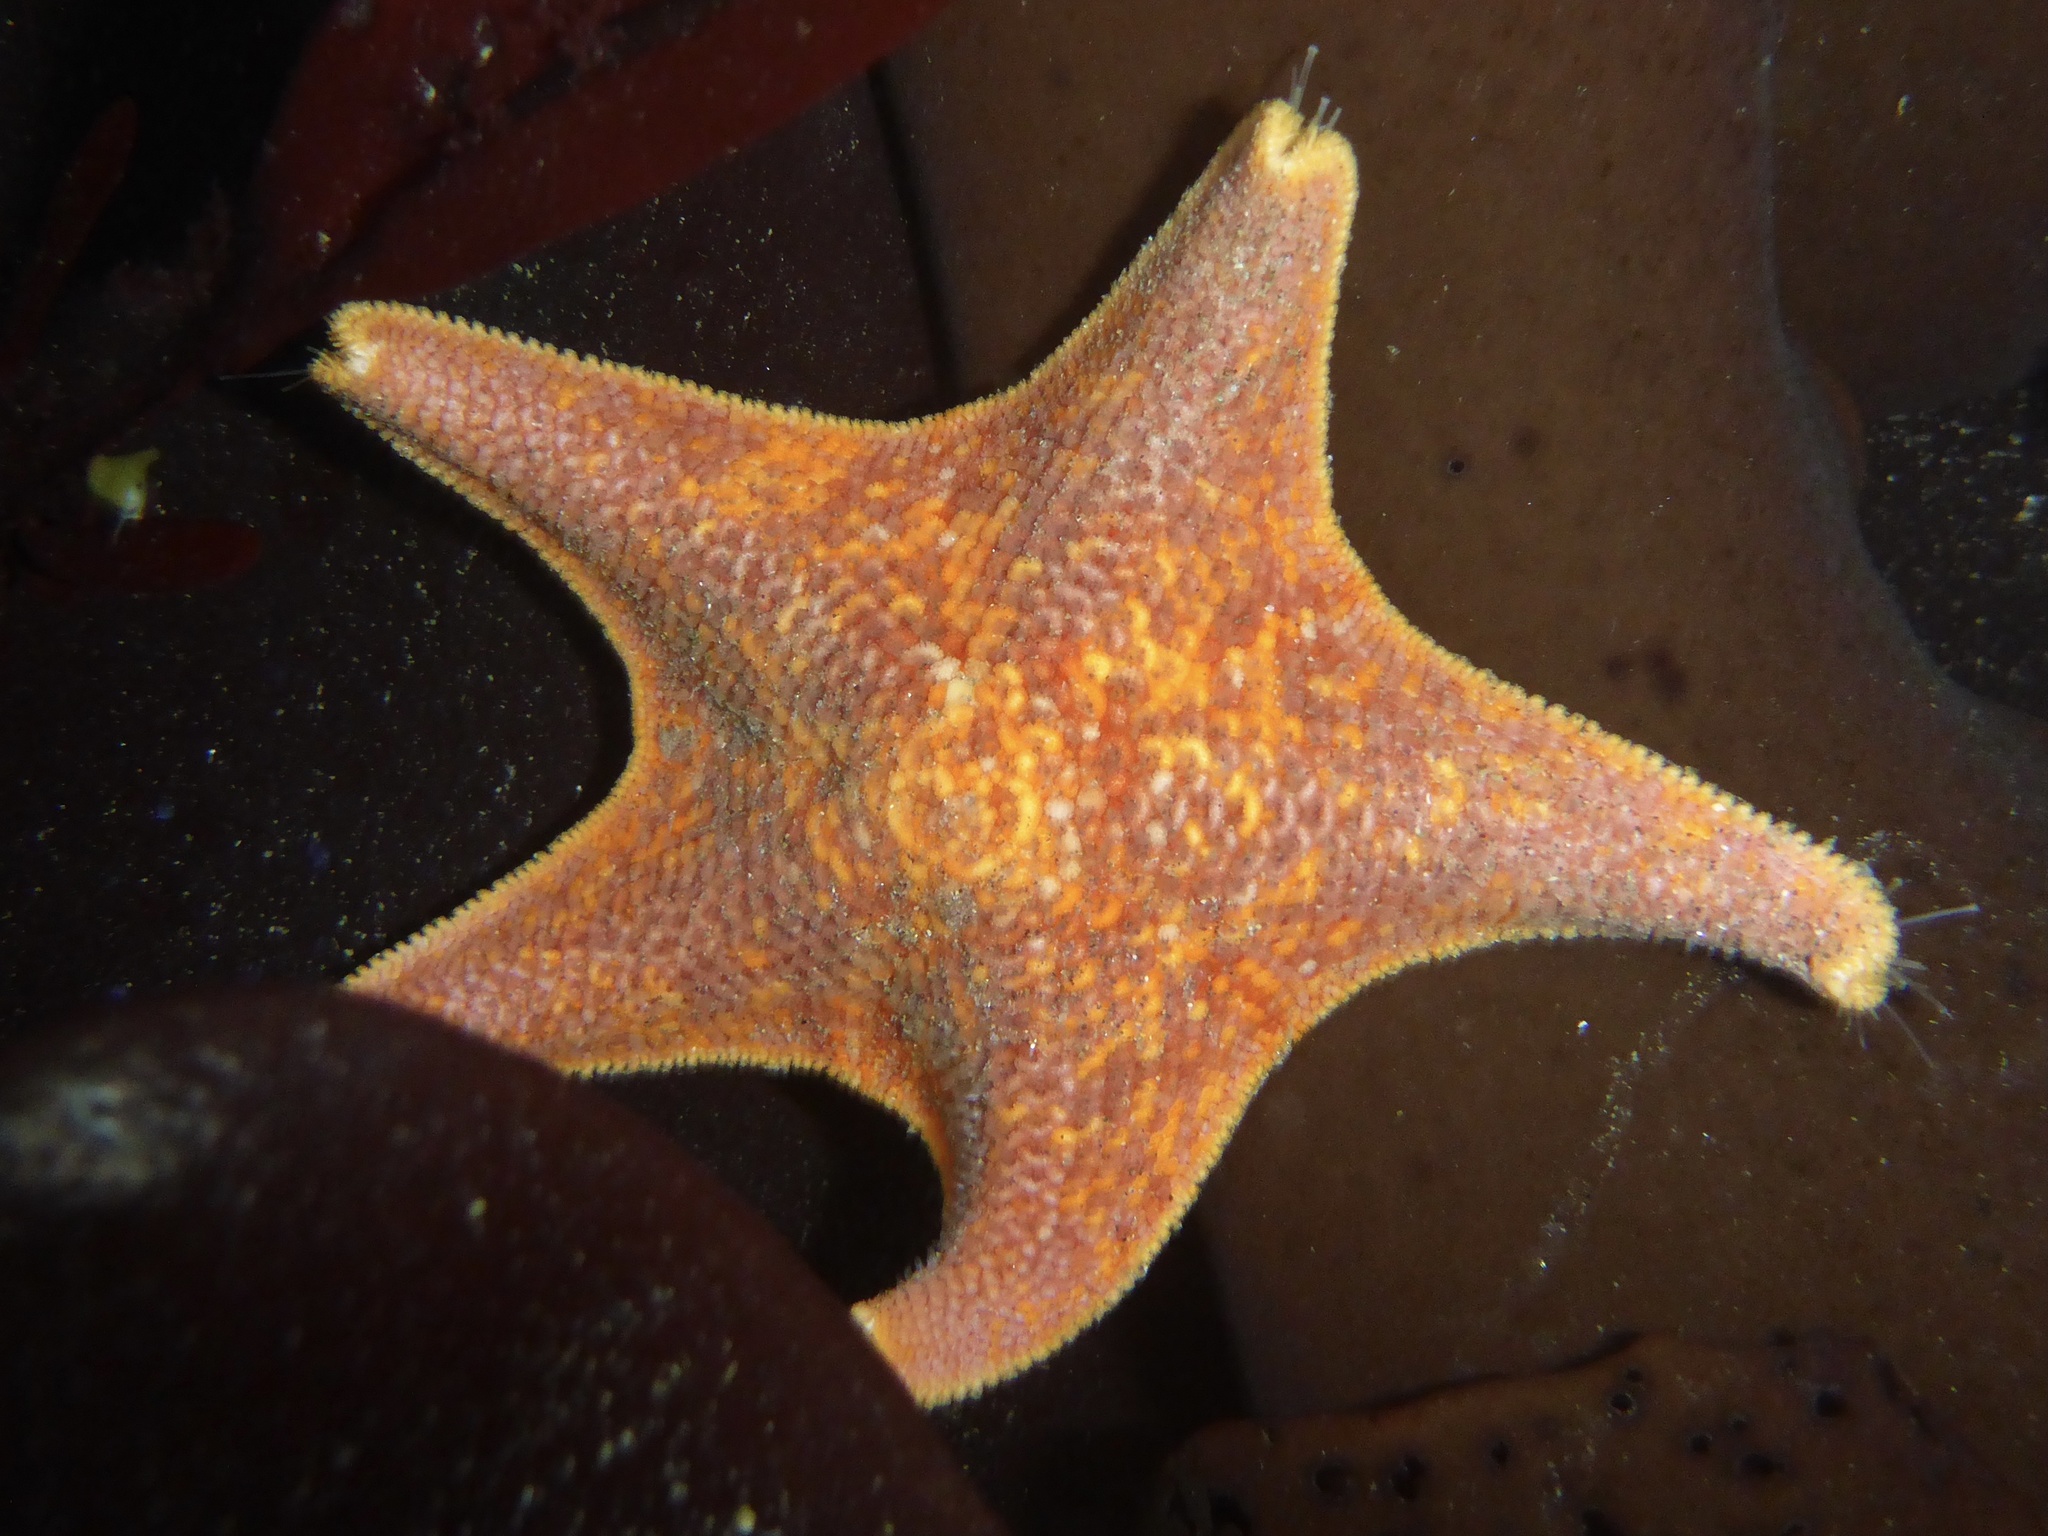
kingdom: Animalia
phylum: Echinodermata
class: Asteroidea
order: Valvatida
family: Asterinidae
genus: Patiria
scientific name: Patiria miniata
